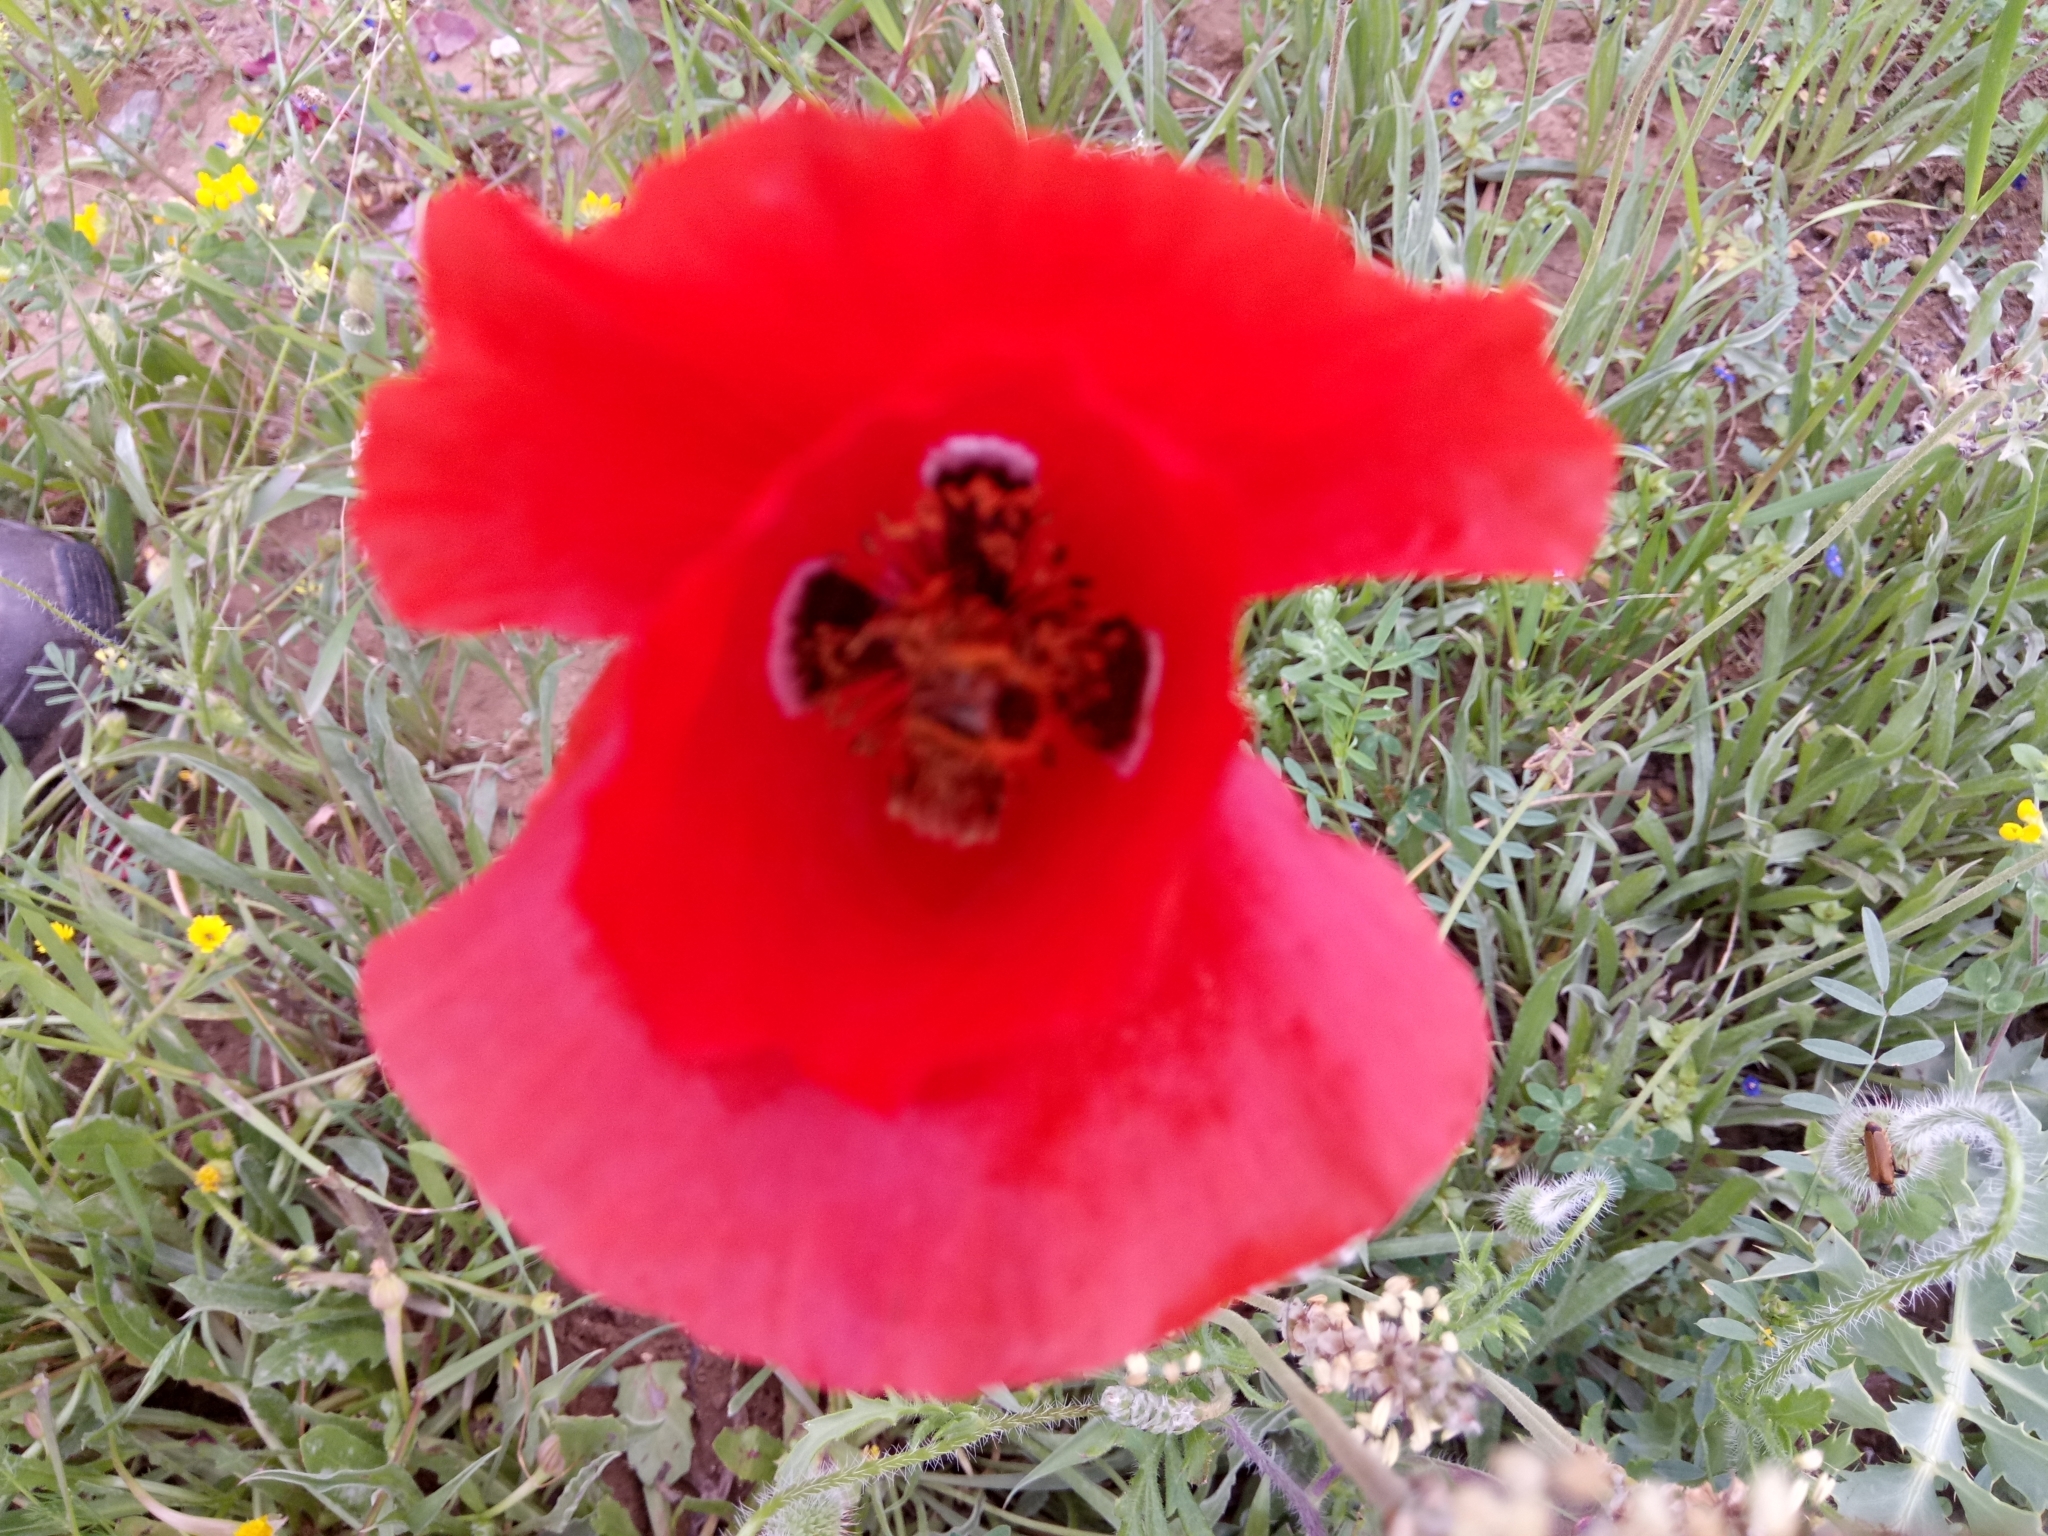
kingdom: Plantae
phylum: Tracheophyta
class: Magnoliopsida
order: Ranunculales
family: Papaveraceae
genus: Papaver
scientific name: Papaver rhoeas
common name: Corn poppy
